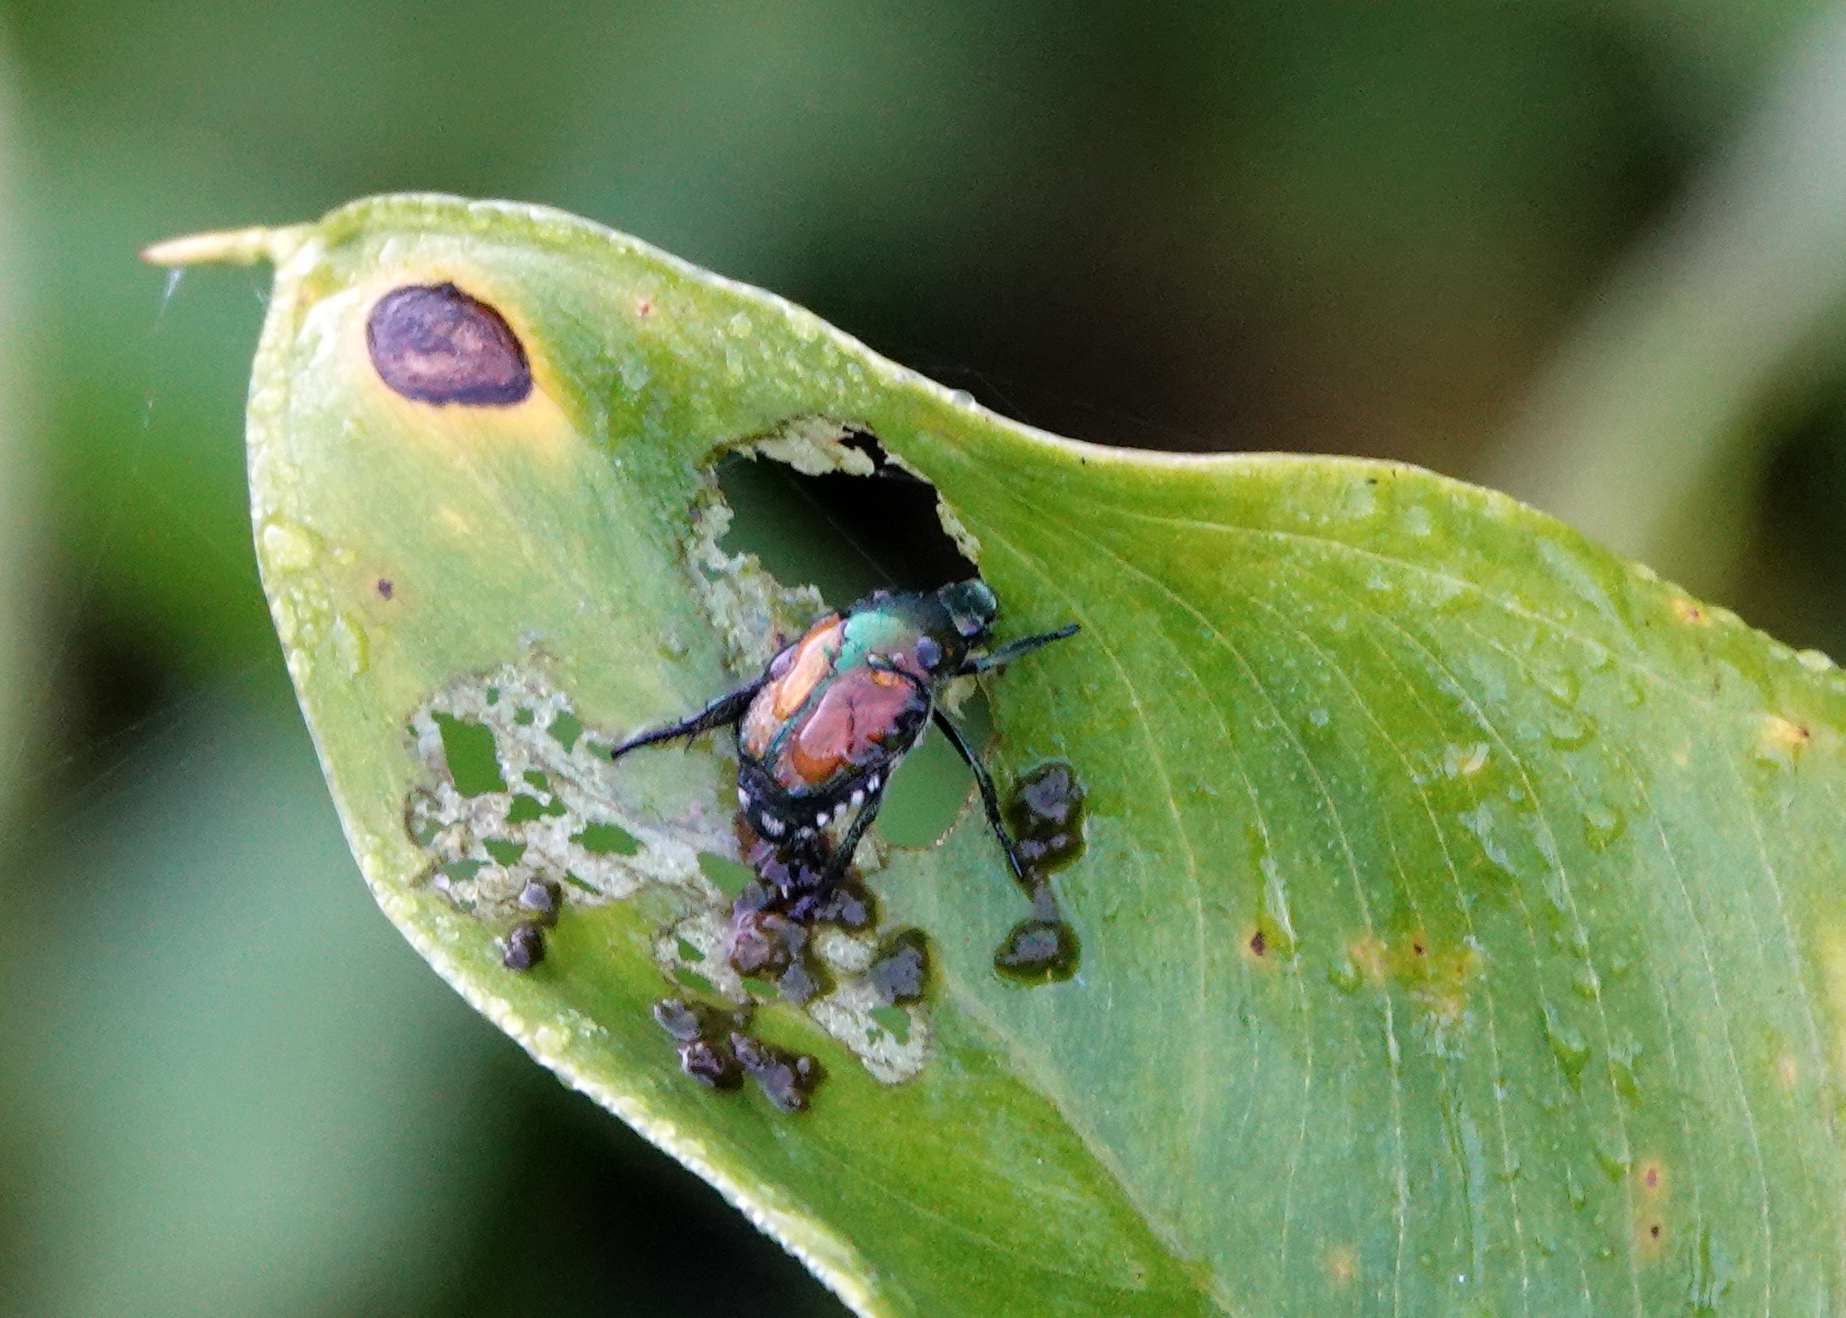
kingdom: Animalia
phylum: Arthropoda
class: Insecta
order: Coleoptera
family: Scarabaeidae
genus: Popillia
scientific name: Popillia japonica
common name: Japanese beetle
